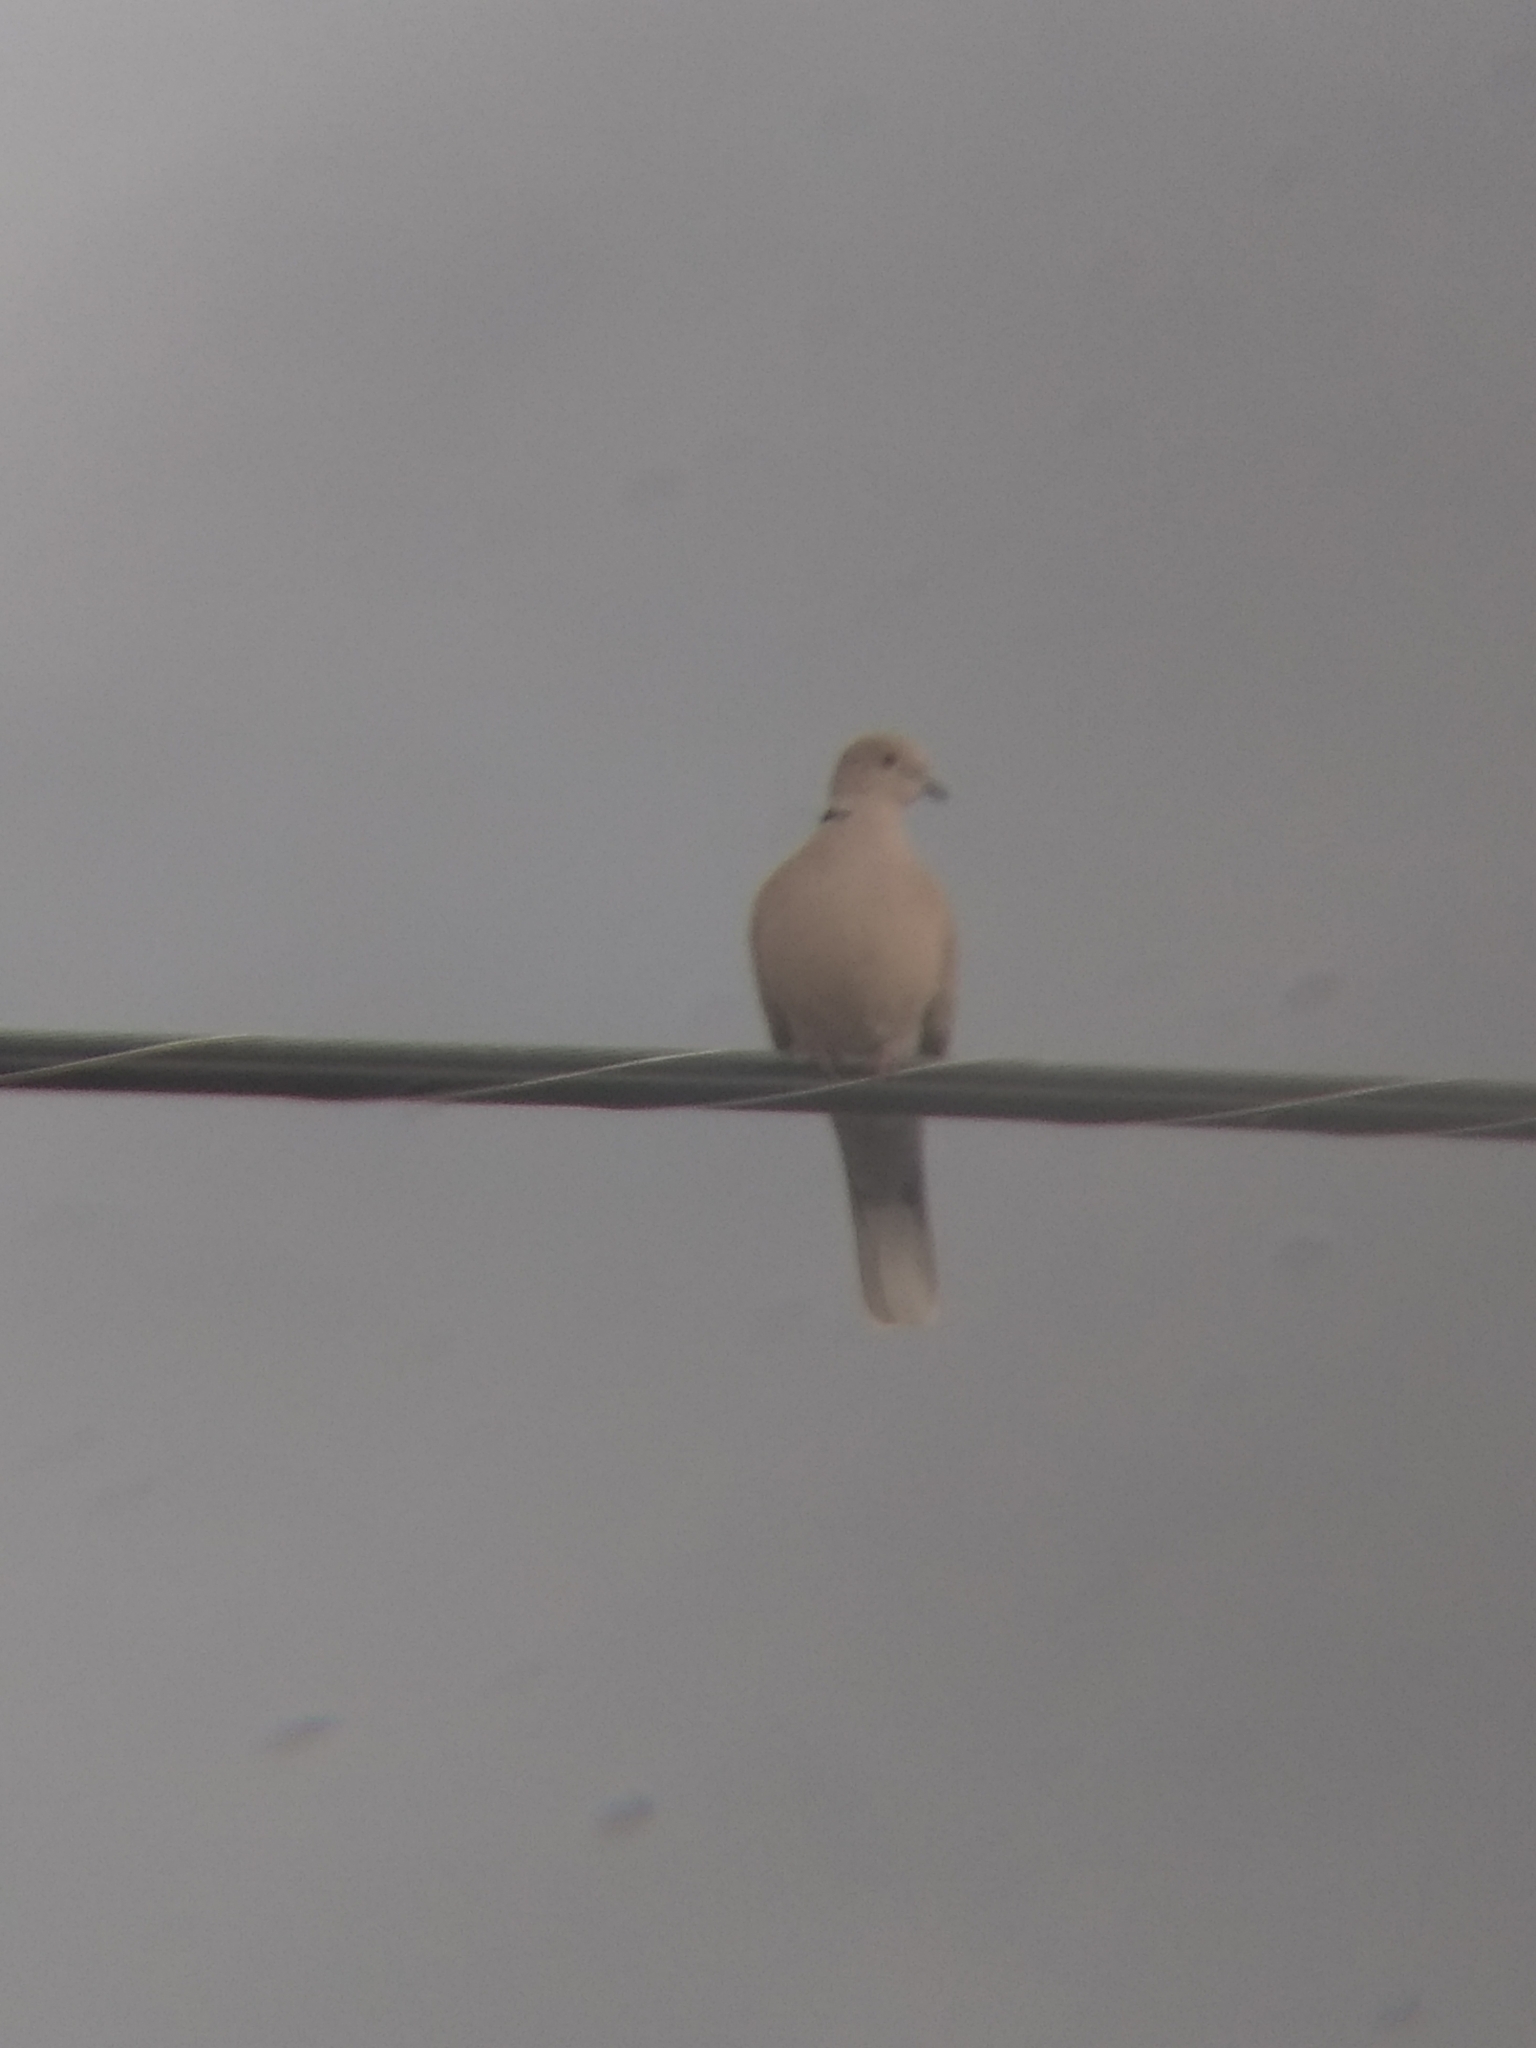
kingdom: Animalia
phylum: Chordata
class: Aves
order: Columbiformes
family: Columbidae
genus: Streptopelia
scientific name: Streptopelia decaocto
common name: Eurasian collared dove
